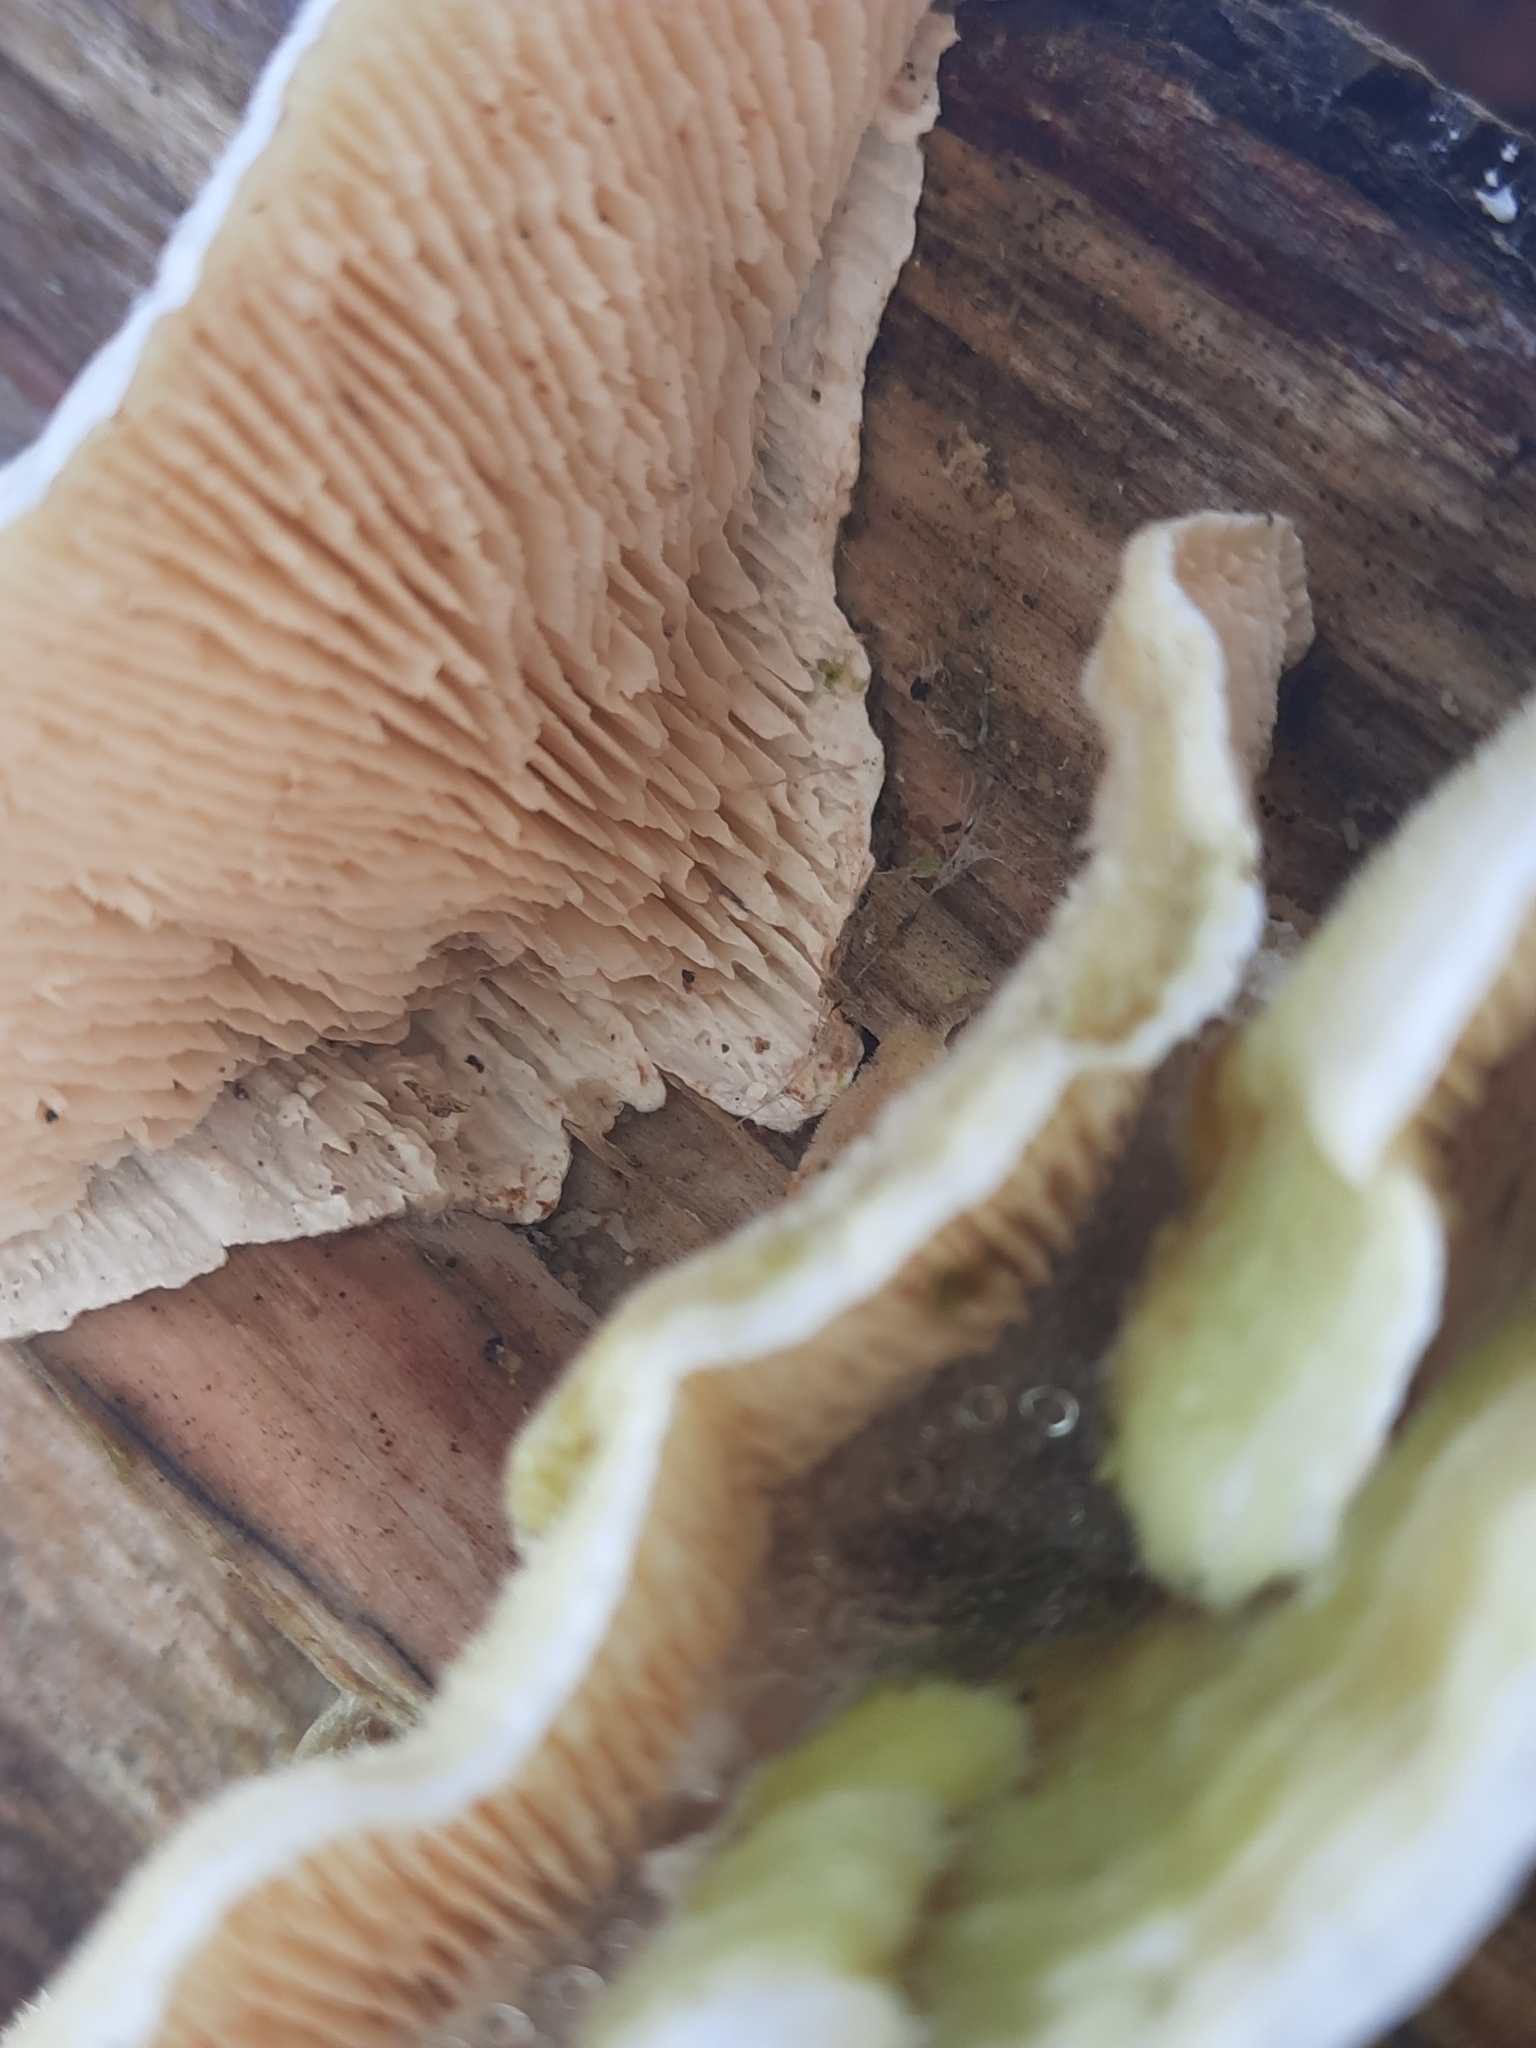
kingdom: Fungi
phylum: Basidiomycota
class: Agaricomycetes
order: Polyporales
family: Polyporaceae
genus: Lenzites
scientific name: Lenzites betulinus
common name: Birch mazegill
